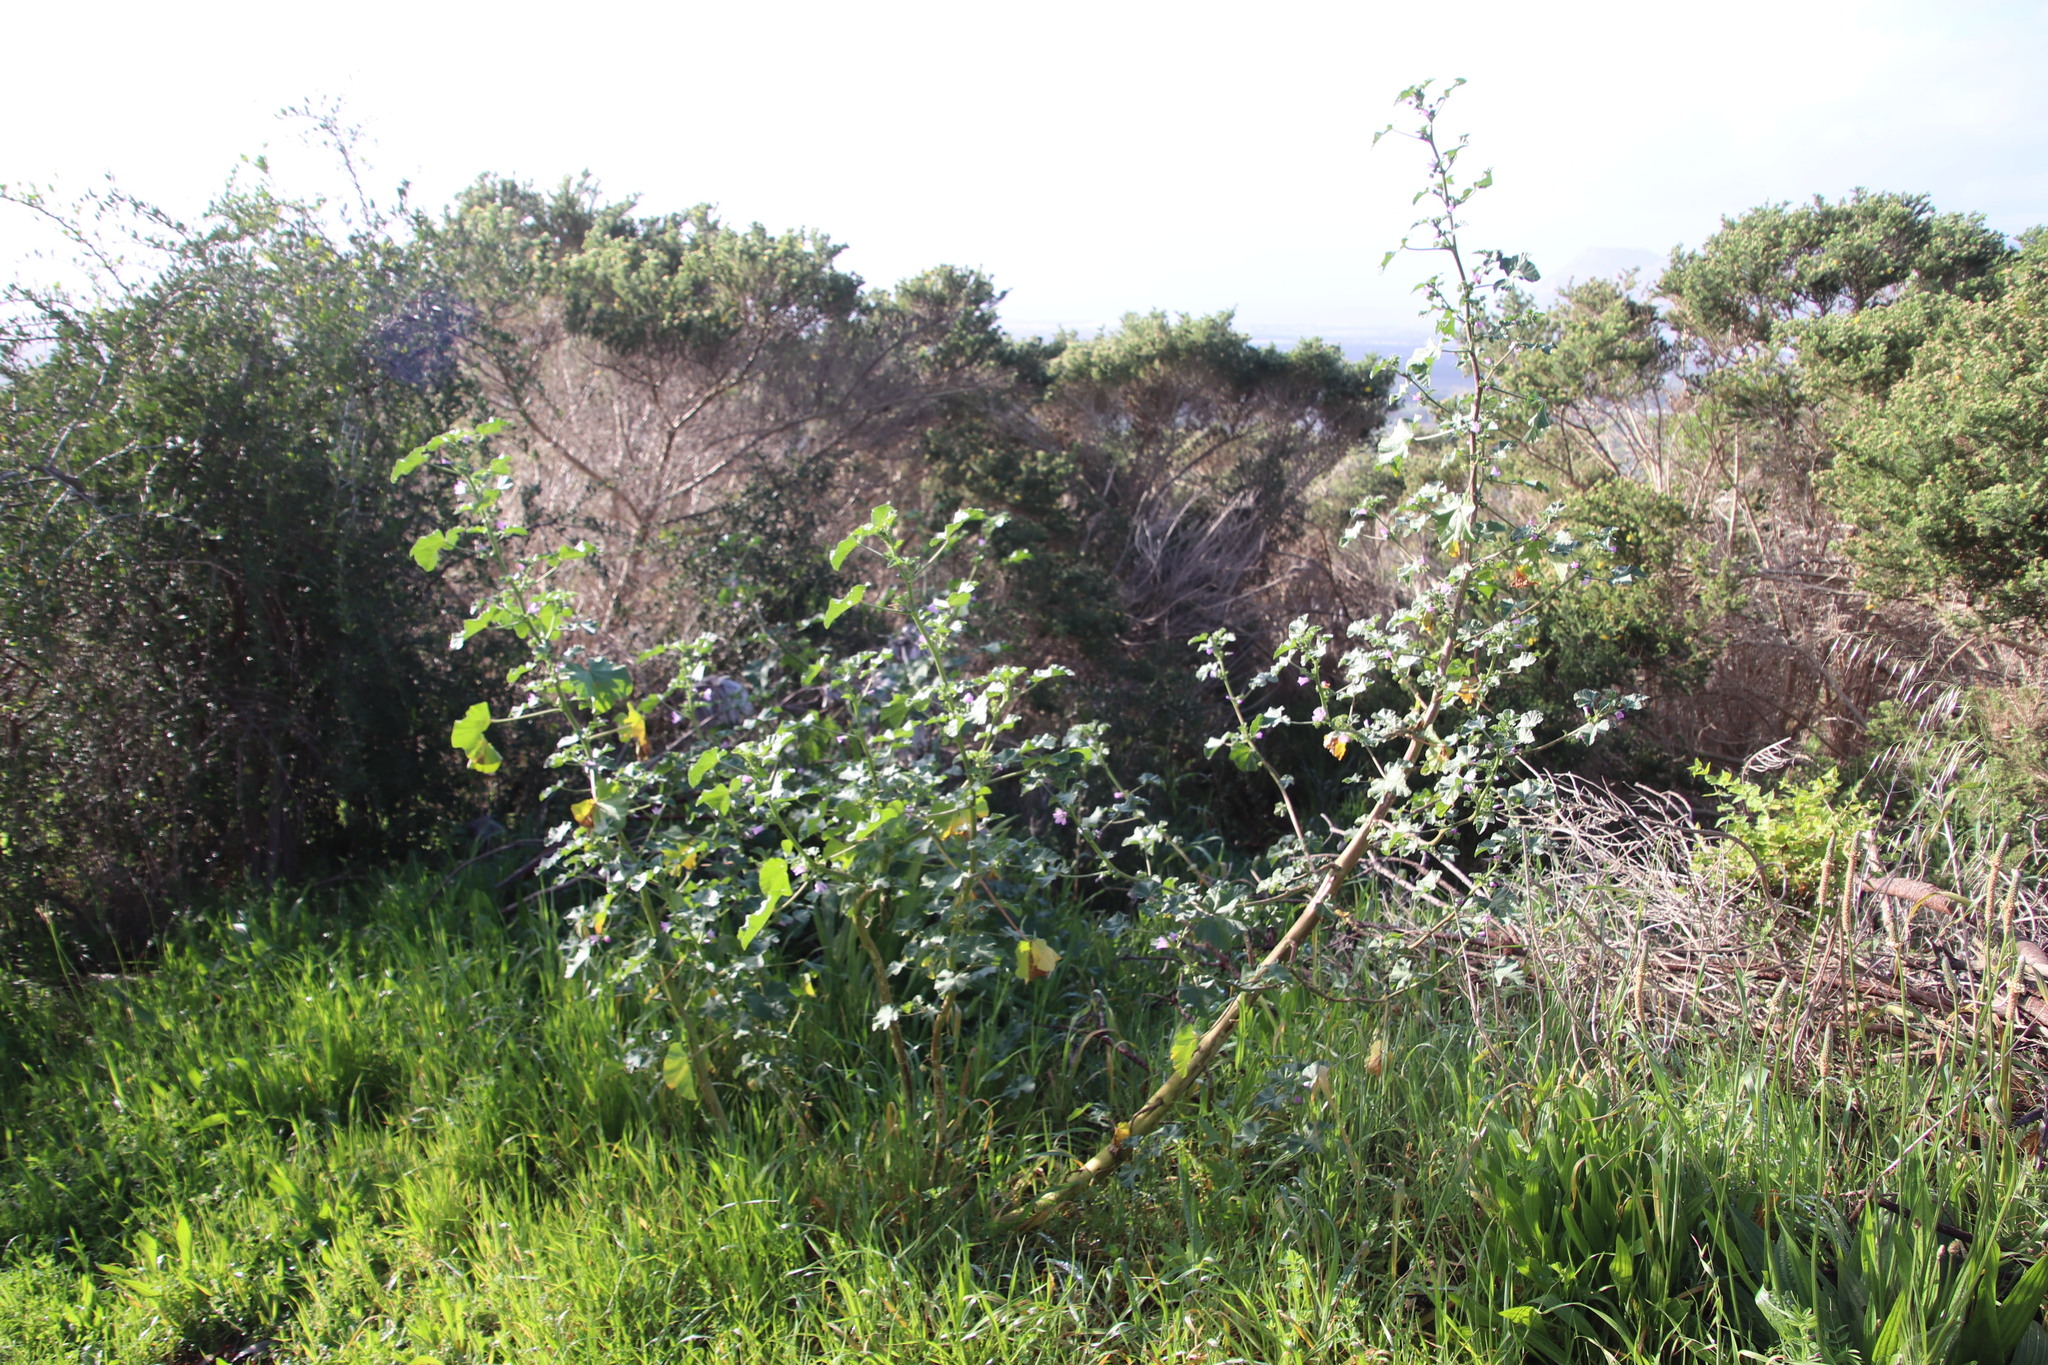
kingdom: Plantae
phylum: Tracheophyta
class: Magnoliopsida
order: Malvales
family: Malvaceae
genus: Malva
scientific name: Malva arborea
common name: Tree mallow
